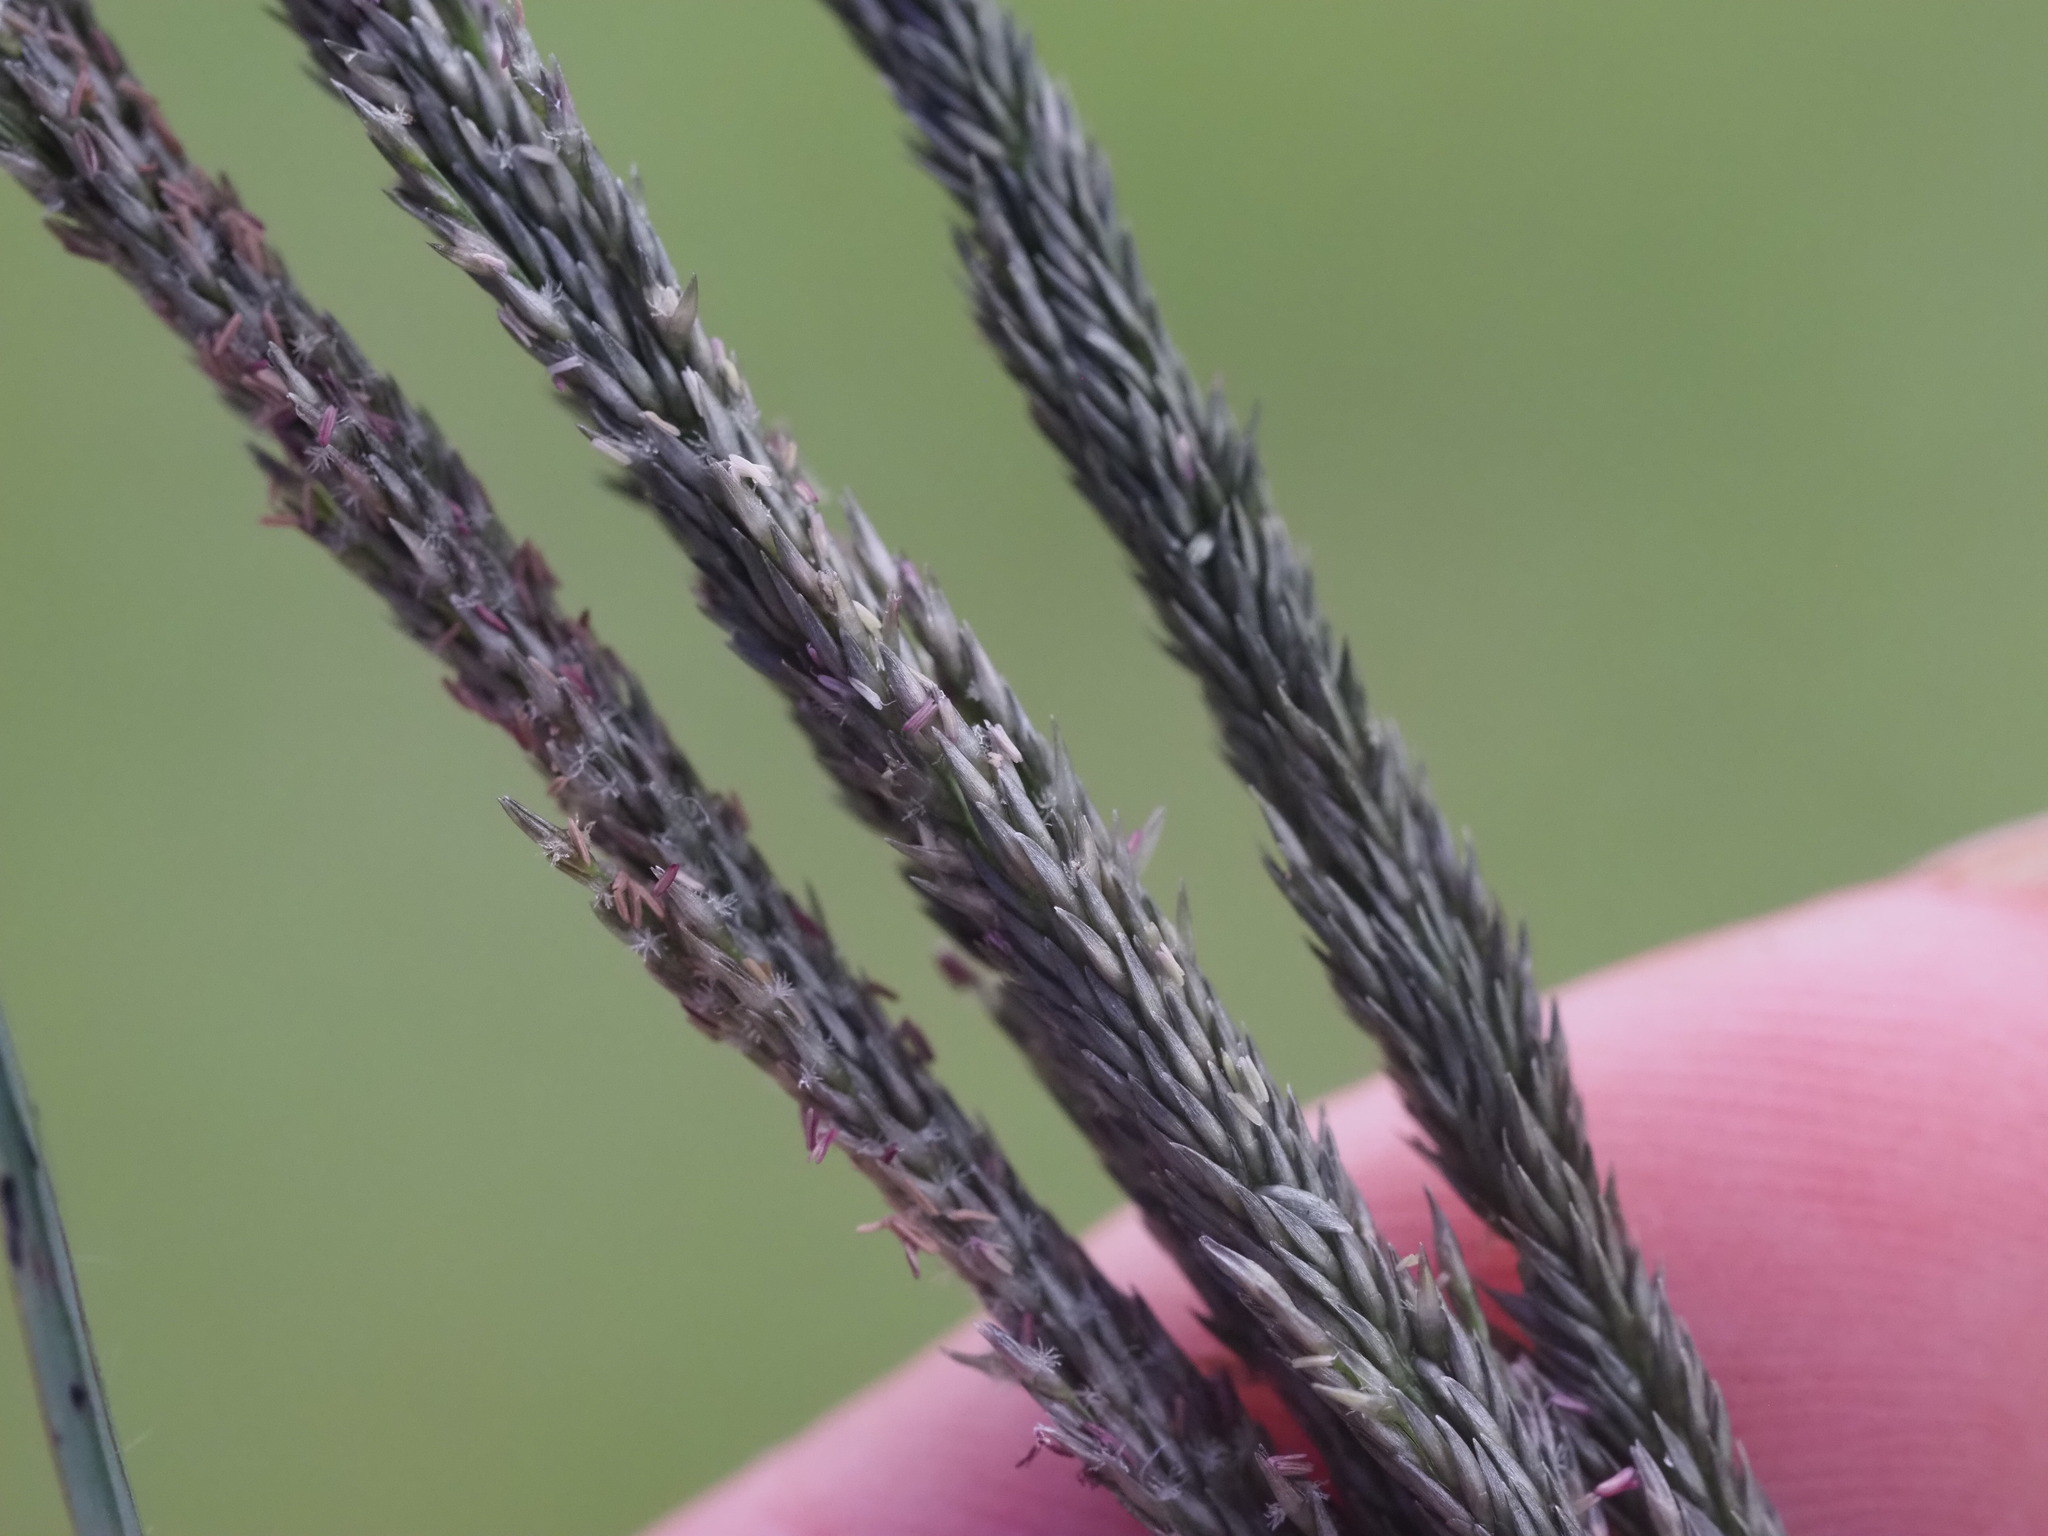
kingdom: Plantae
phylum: Tracheophyta
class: Liliopsida
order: Poales
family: Poaceae
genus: Sporobolus
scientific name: Sporobolus africanus
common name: African dropseed
